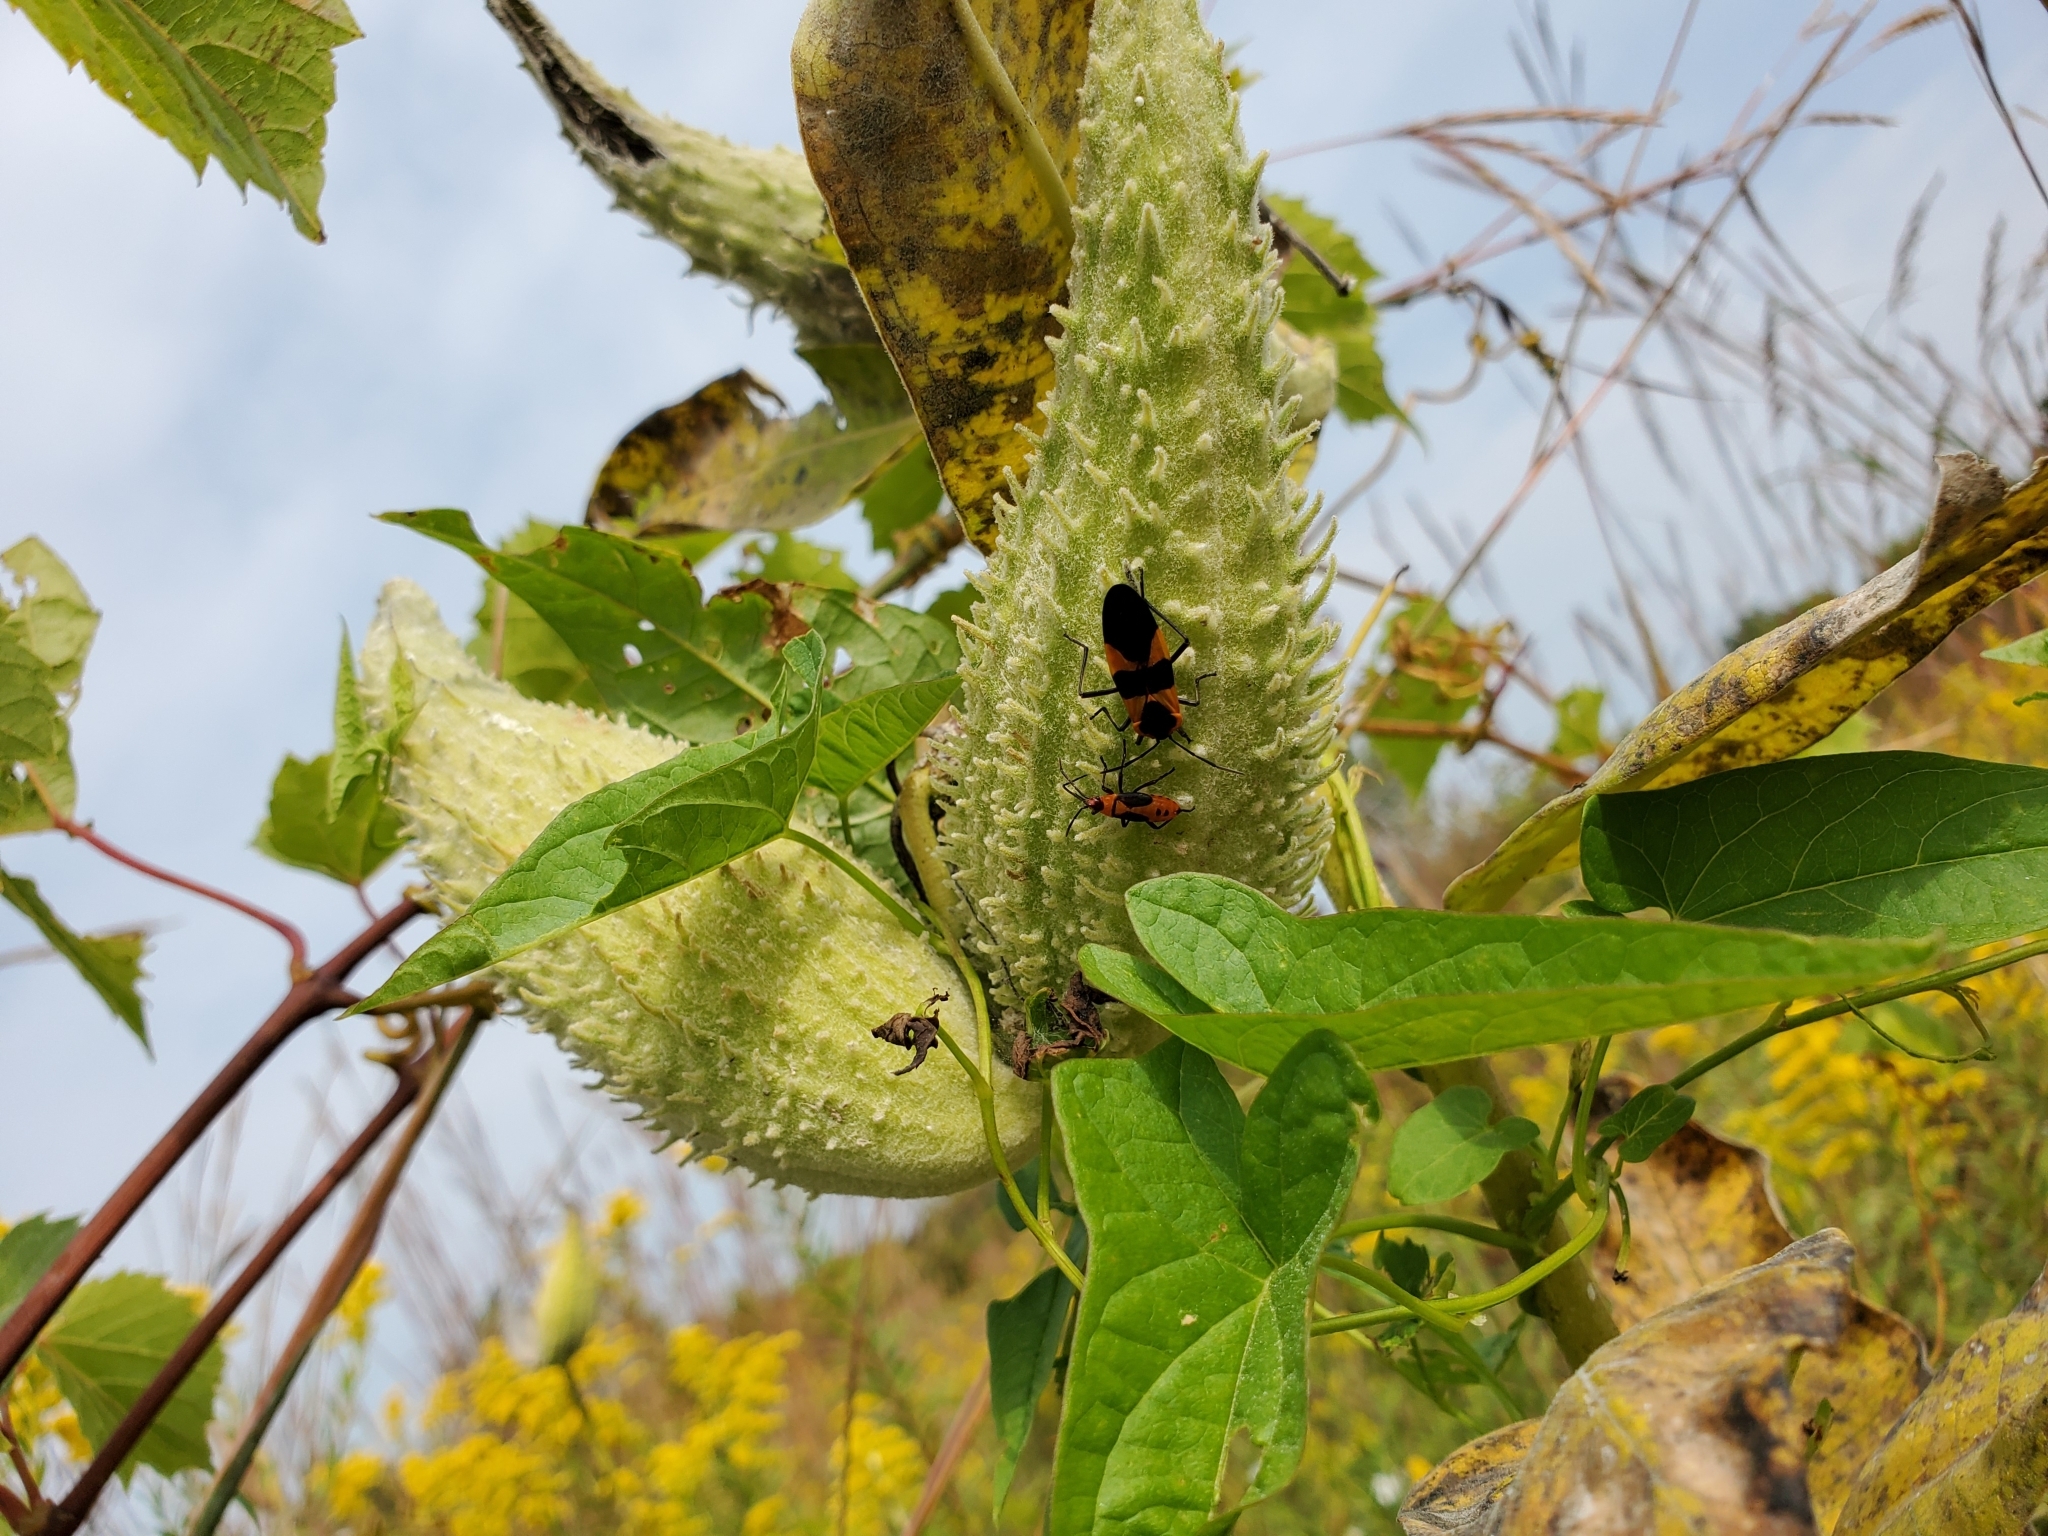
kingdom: Animalia
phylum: Arthropoda
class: Insecta
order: Hemiptera
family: Lygaeidae
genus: Oncopeltus
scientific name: Oncopeltus fasciatus
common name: Large milkweed bug
